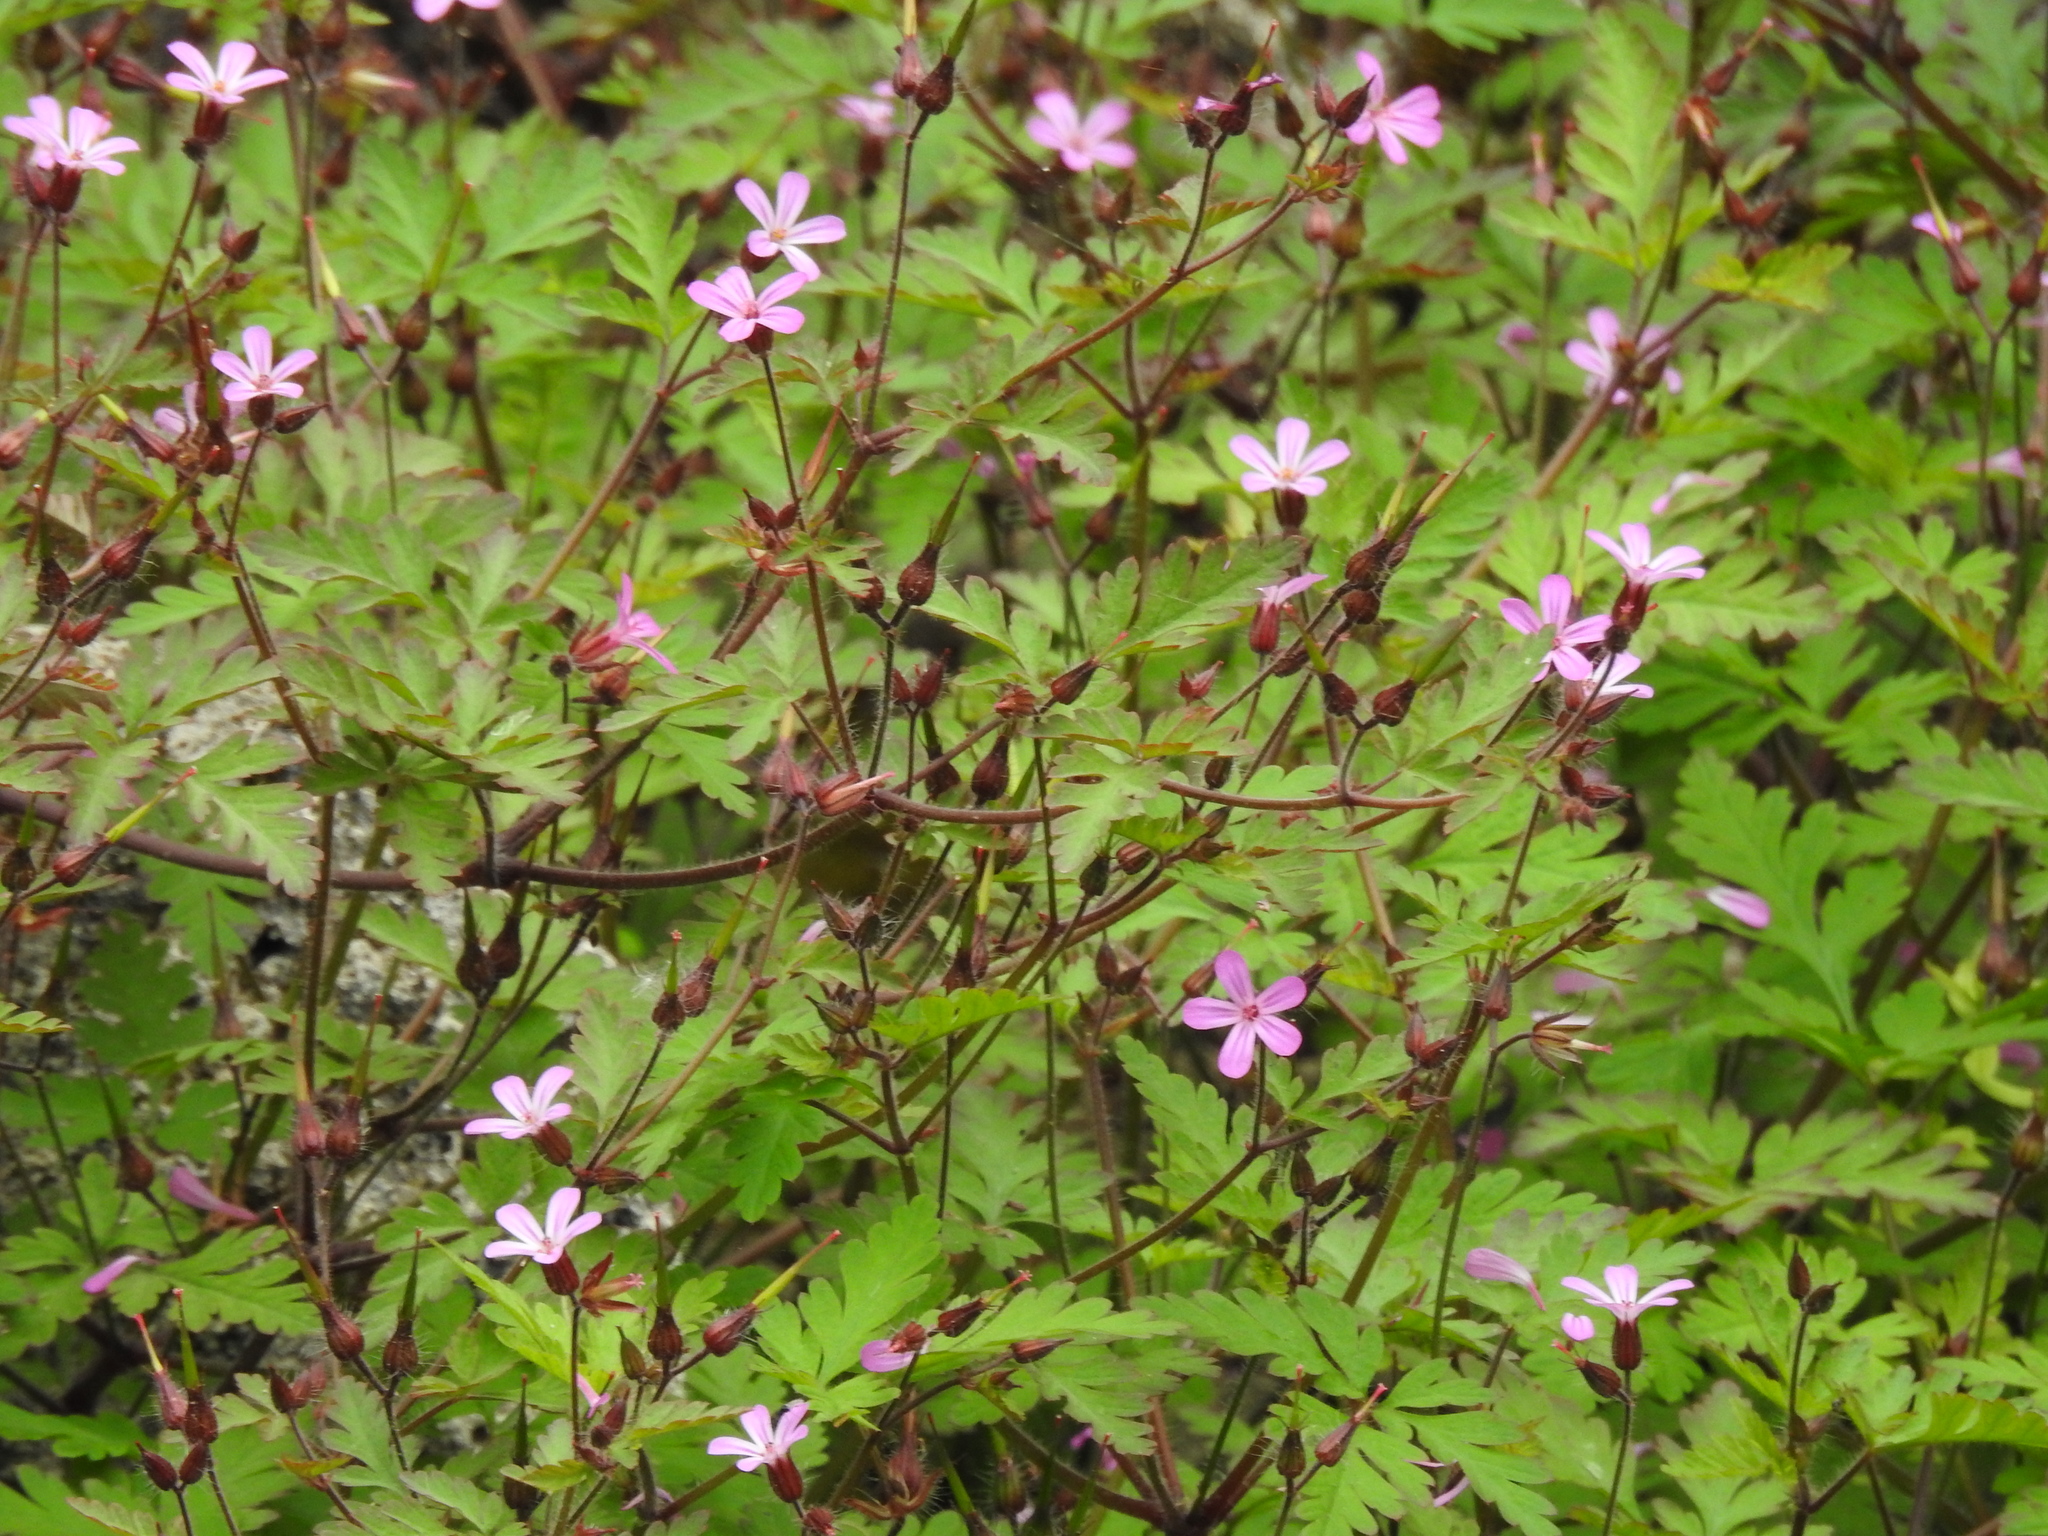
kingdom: Plantae
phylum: Tracheophyta
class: Magnoliopsida
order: Geraniales
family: Geraniaceae
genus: Geranium
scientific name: Geranium robertianum
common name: Herb-robert
